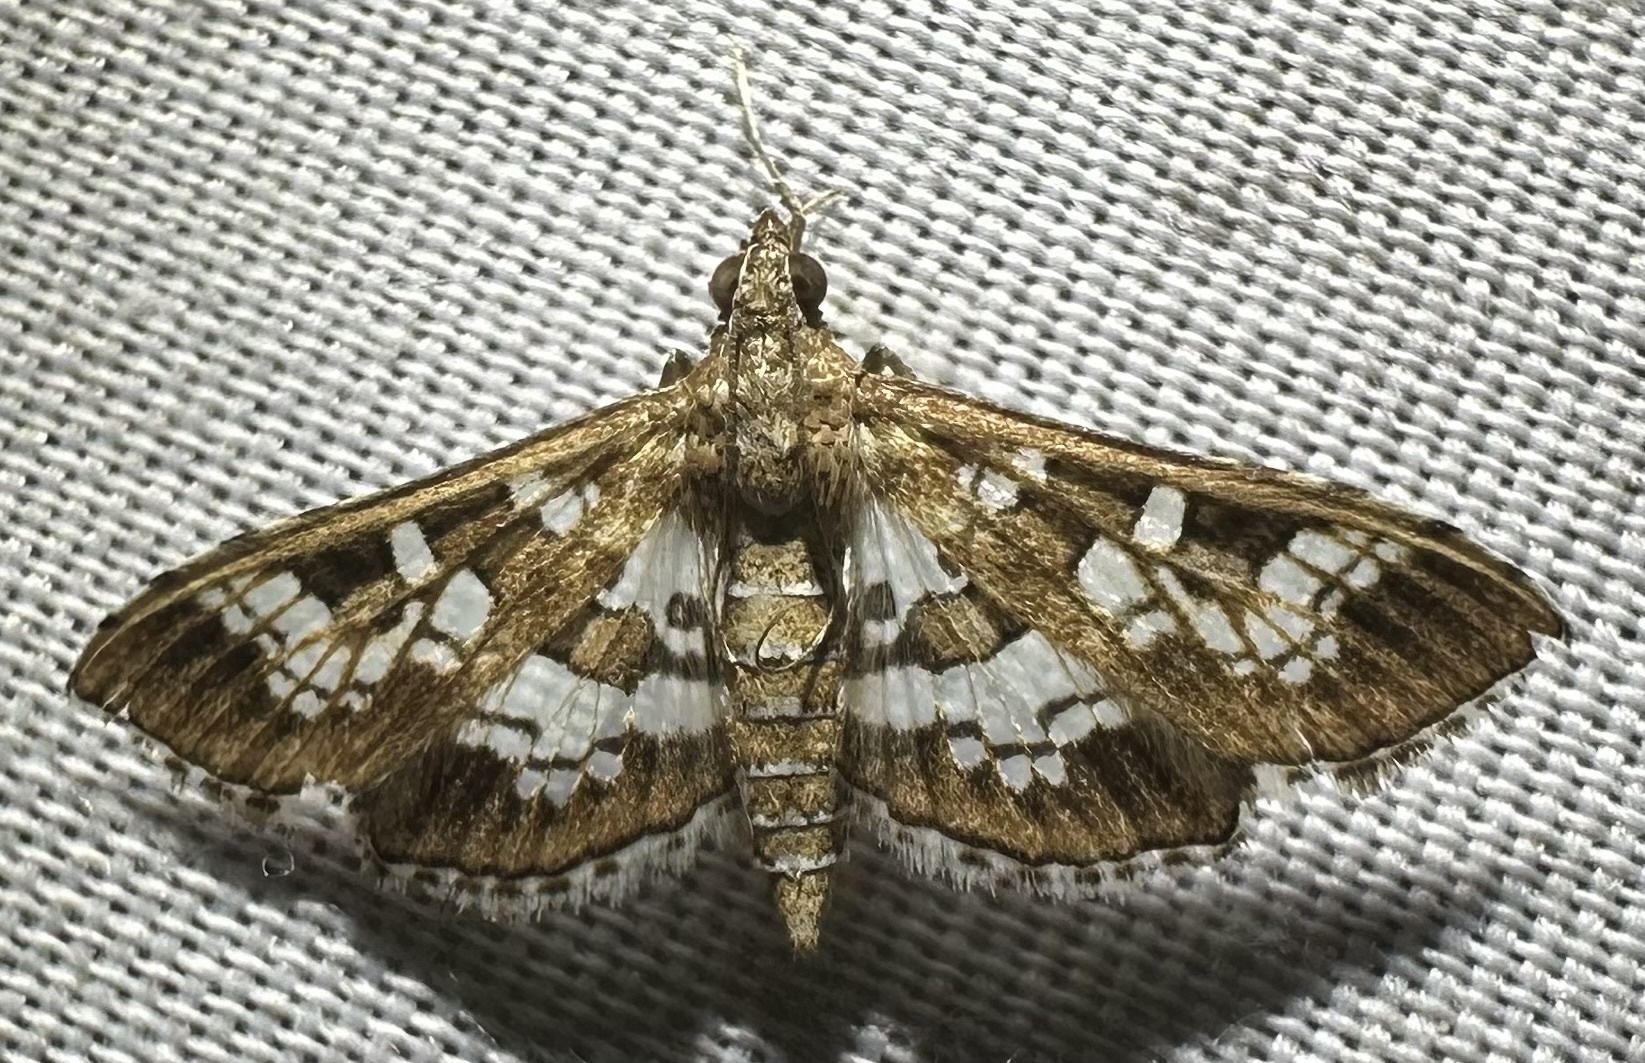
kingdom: Animalia
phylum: Arthropoda
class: Insecta
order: Lepidoptera
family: Crambidae
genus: Sameodes
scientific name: Sameodes cancellalis
